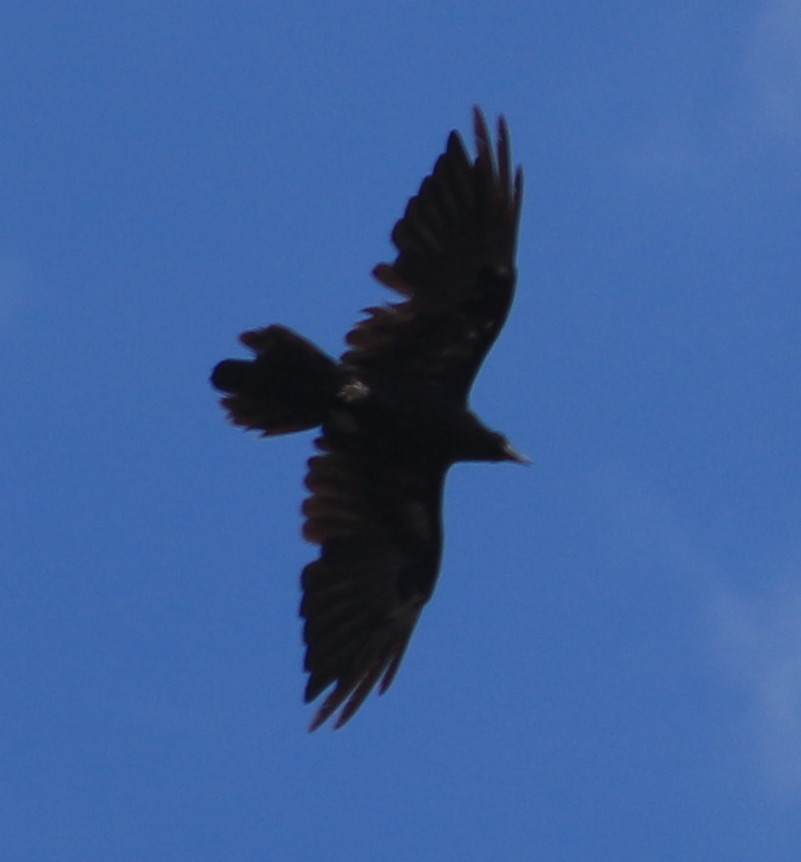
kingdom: Animalia
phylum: Chordata
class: Aves
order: Passeriformes
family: Corvidae
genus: Corvus
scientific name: Corvus corax
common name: Common raven
